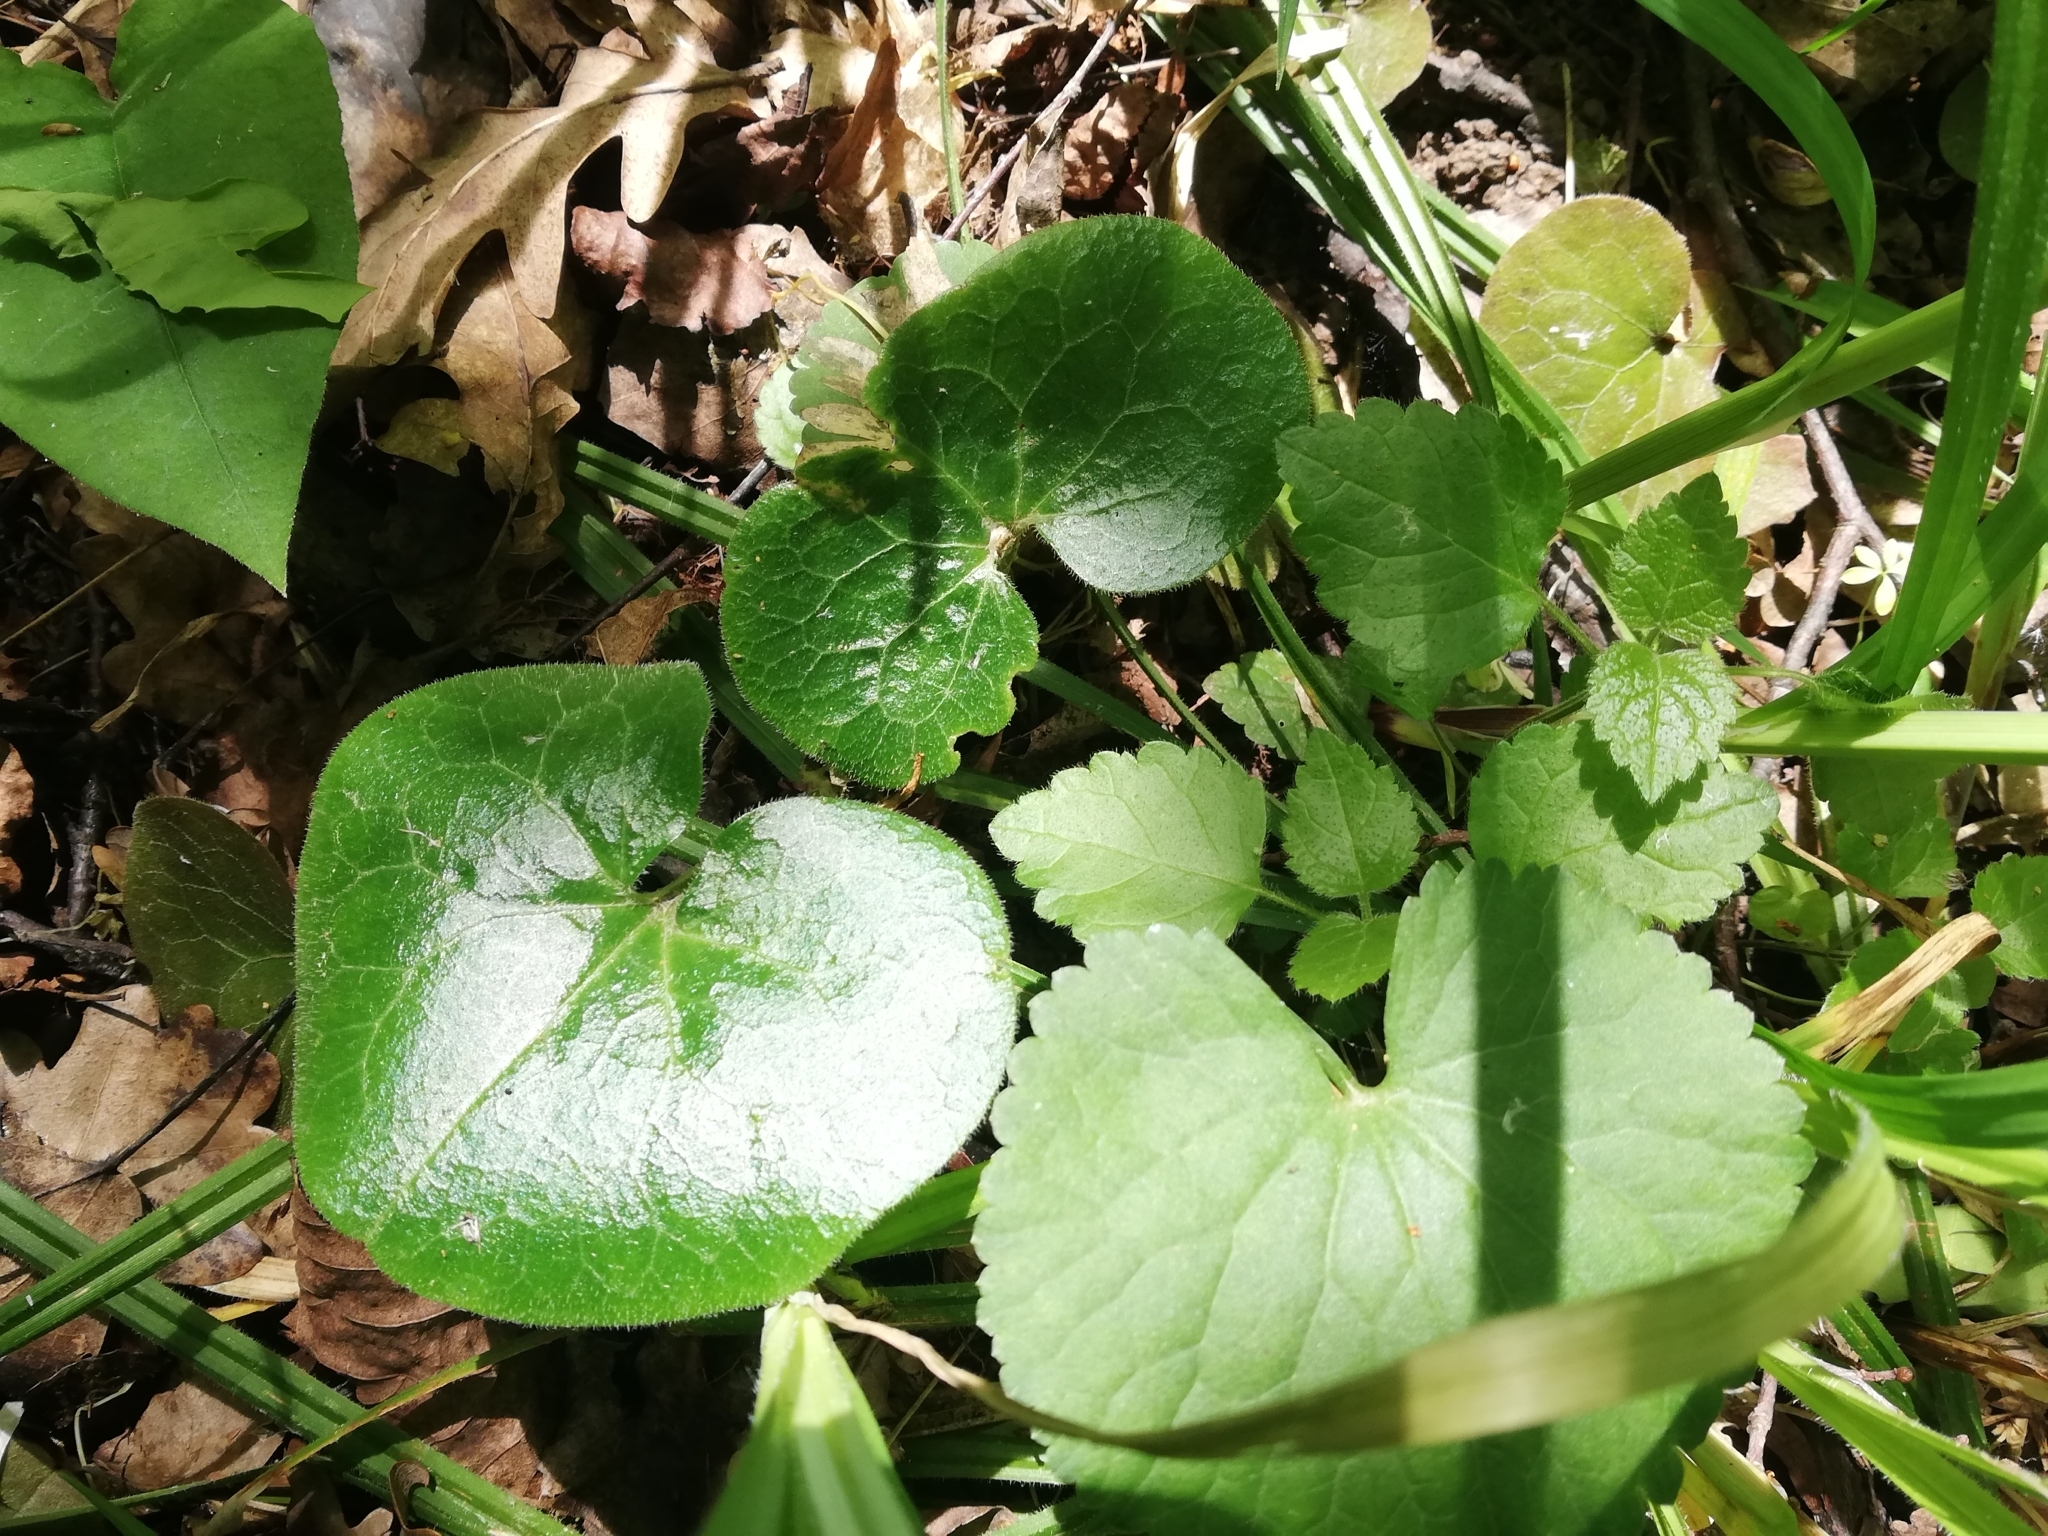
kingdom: Plantae
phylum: Tracheophyta
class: Magnoliopsida
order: Piperales
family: Aristolochiaceae
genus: Asarum
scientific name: Asarum europaeum
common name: Asarabacca
